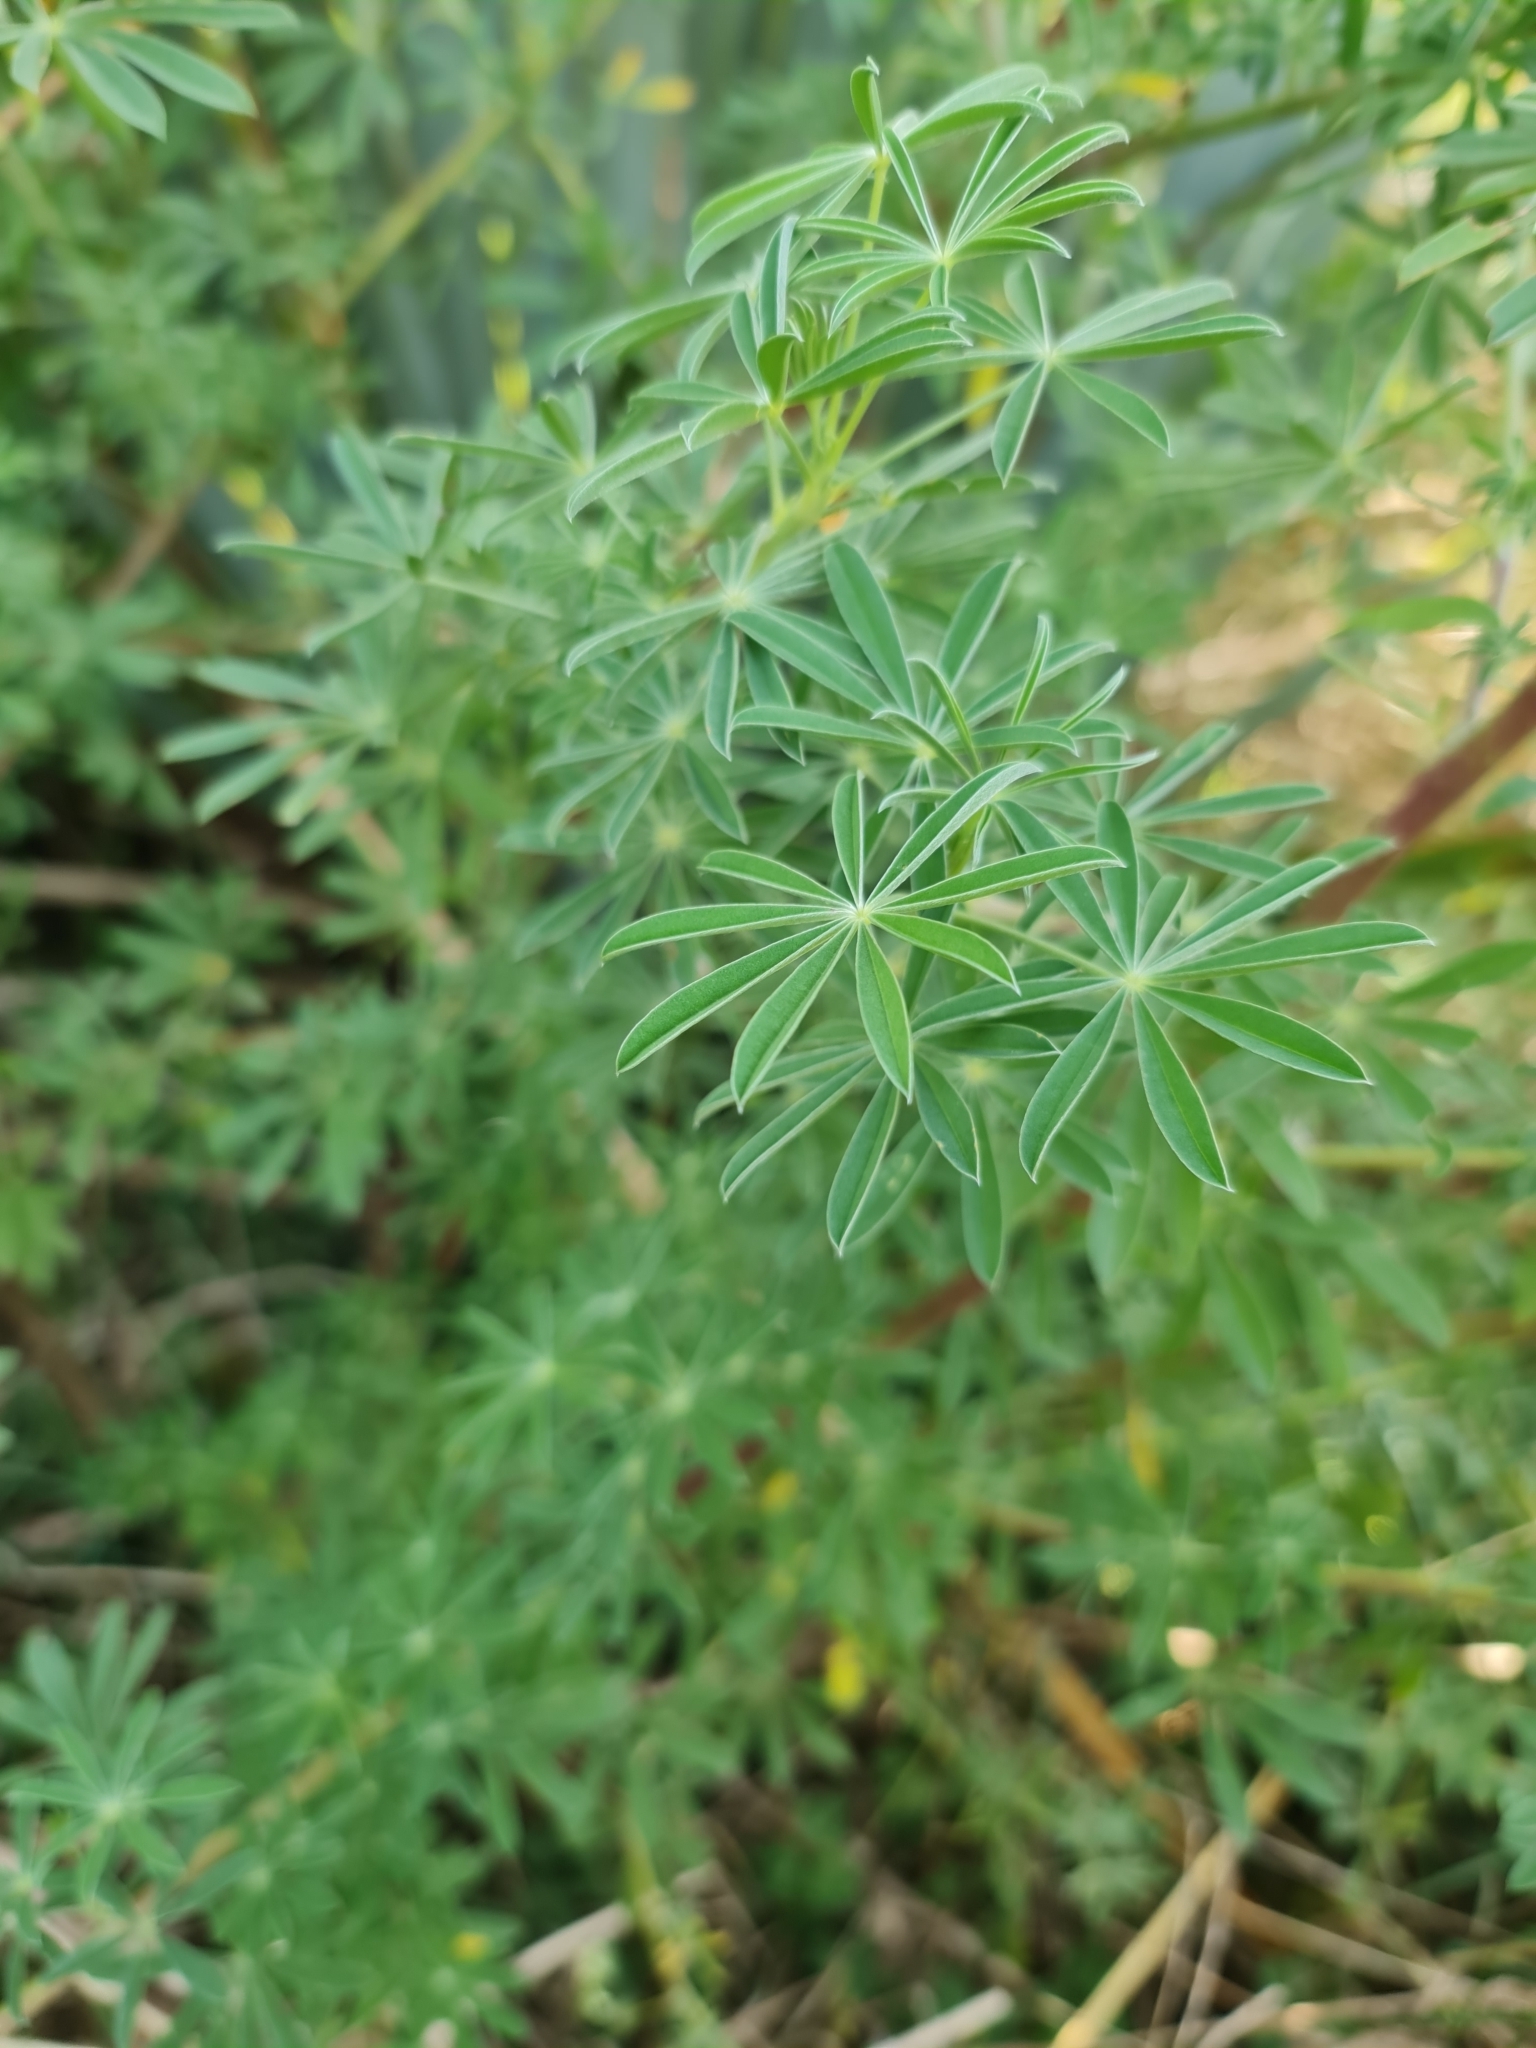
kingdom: Plantae
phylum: Tracheophyta
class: Magnoliopsida
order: Fabales
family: Fabaceae
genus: Lupinus
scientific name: Lupinus arboreus
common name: Yellow bush lupine
